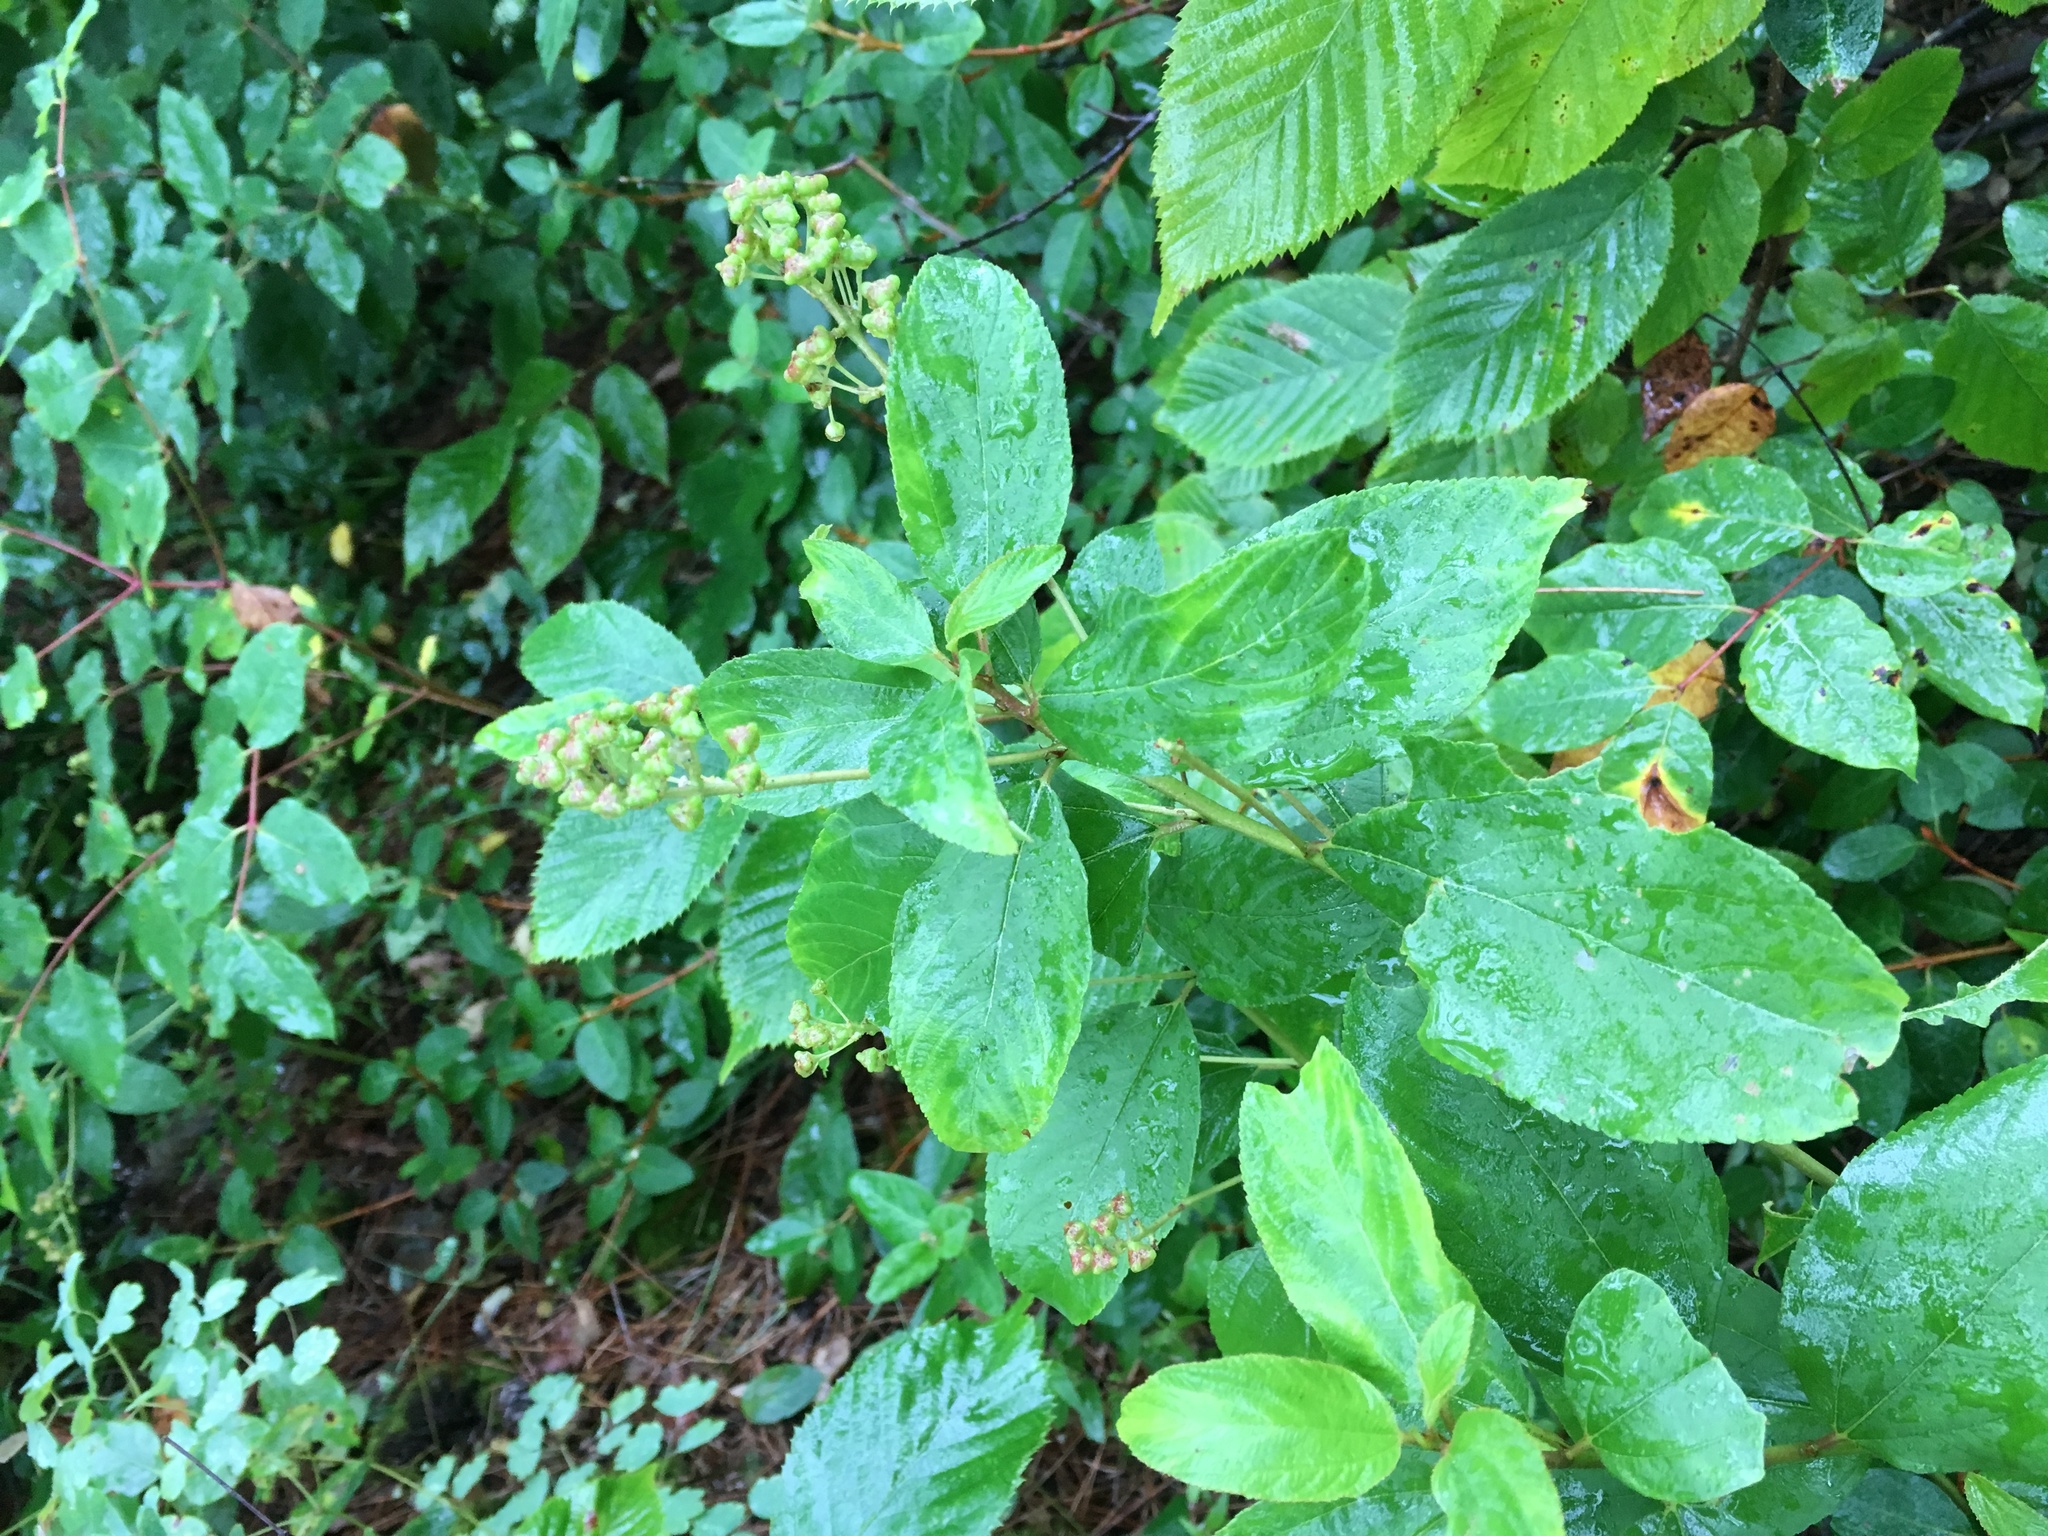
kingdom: Plantae
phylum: Tracheophyta
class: Magnoliopsida
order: Rosales
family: Rhamnaceae
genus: Ceanothus
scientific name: Ceanothus americanus
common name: Redroot
